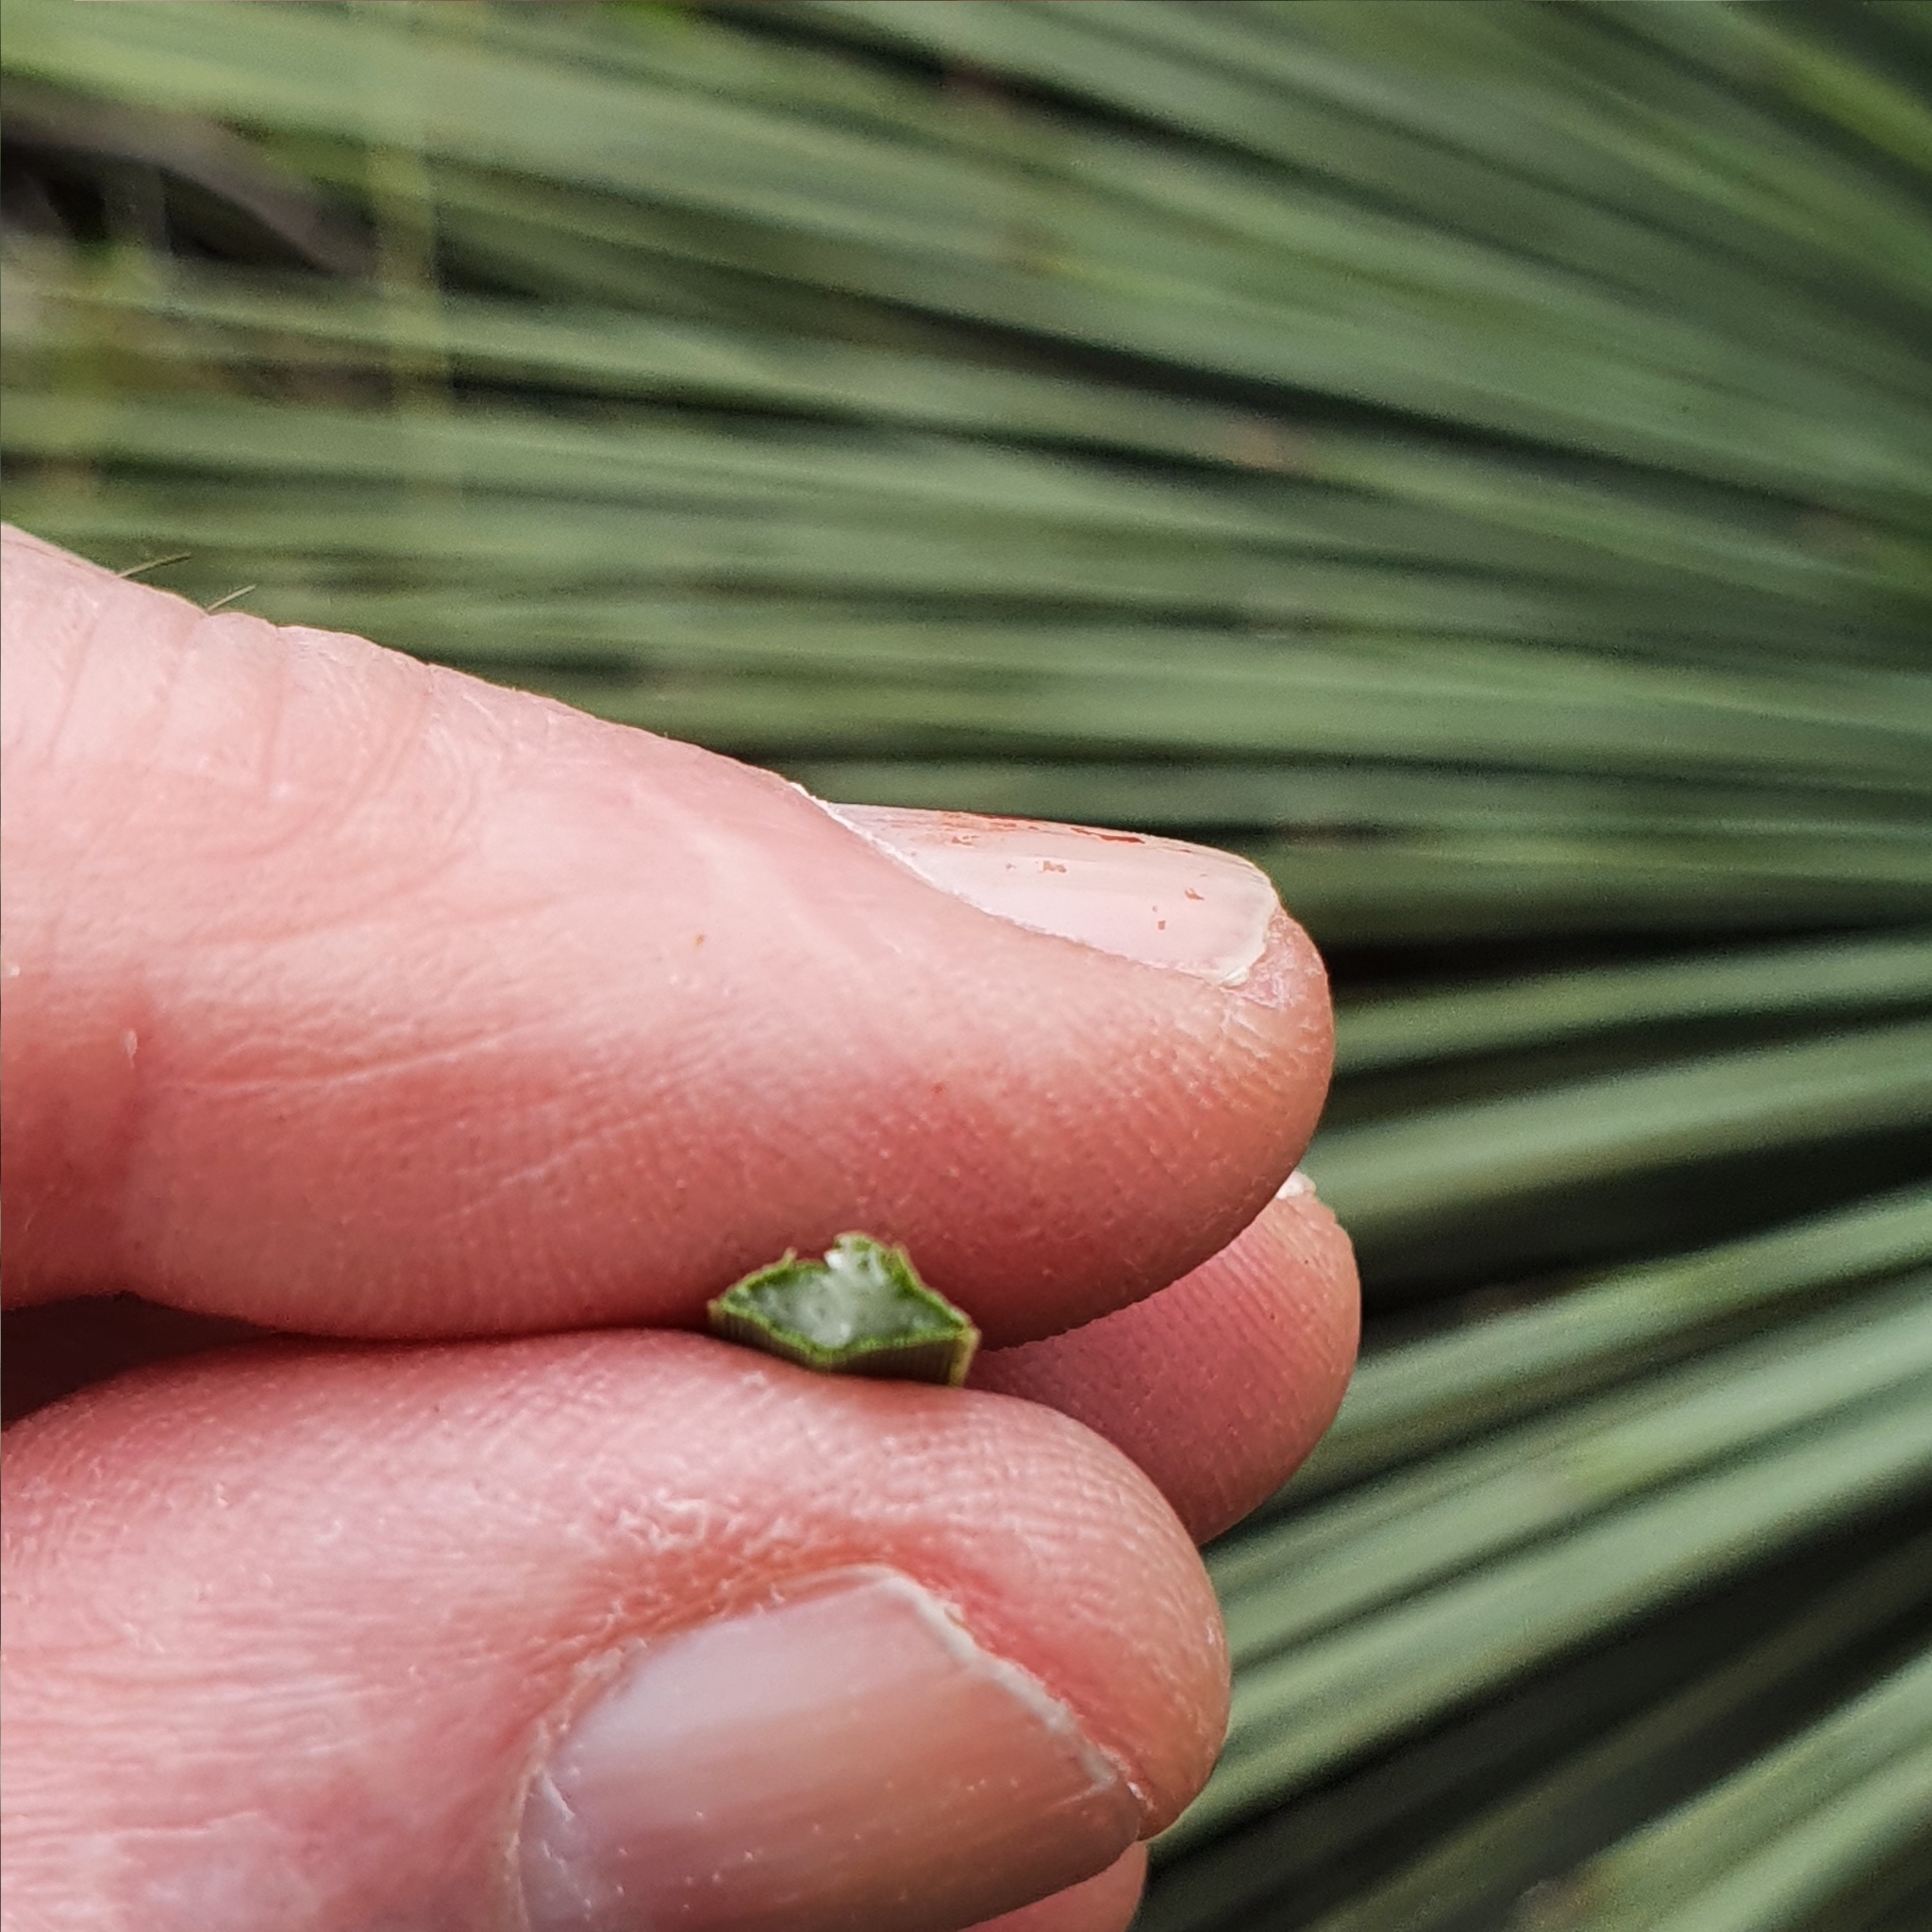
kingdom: Plantae
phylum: Tracheophyta
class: Liliopsida
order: Asparagales
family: Asphodelaceae
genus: Xanthorrhoea
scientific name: Xanthorrhoea resinosa
